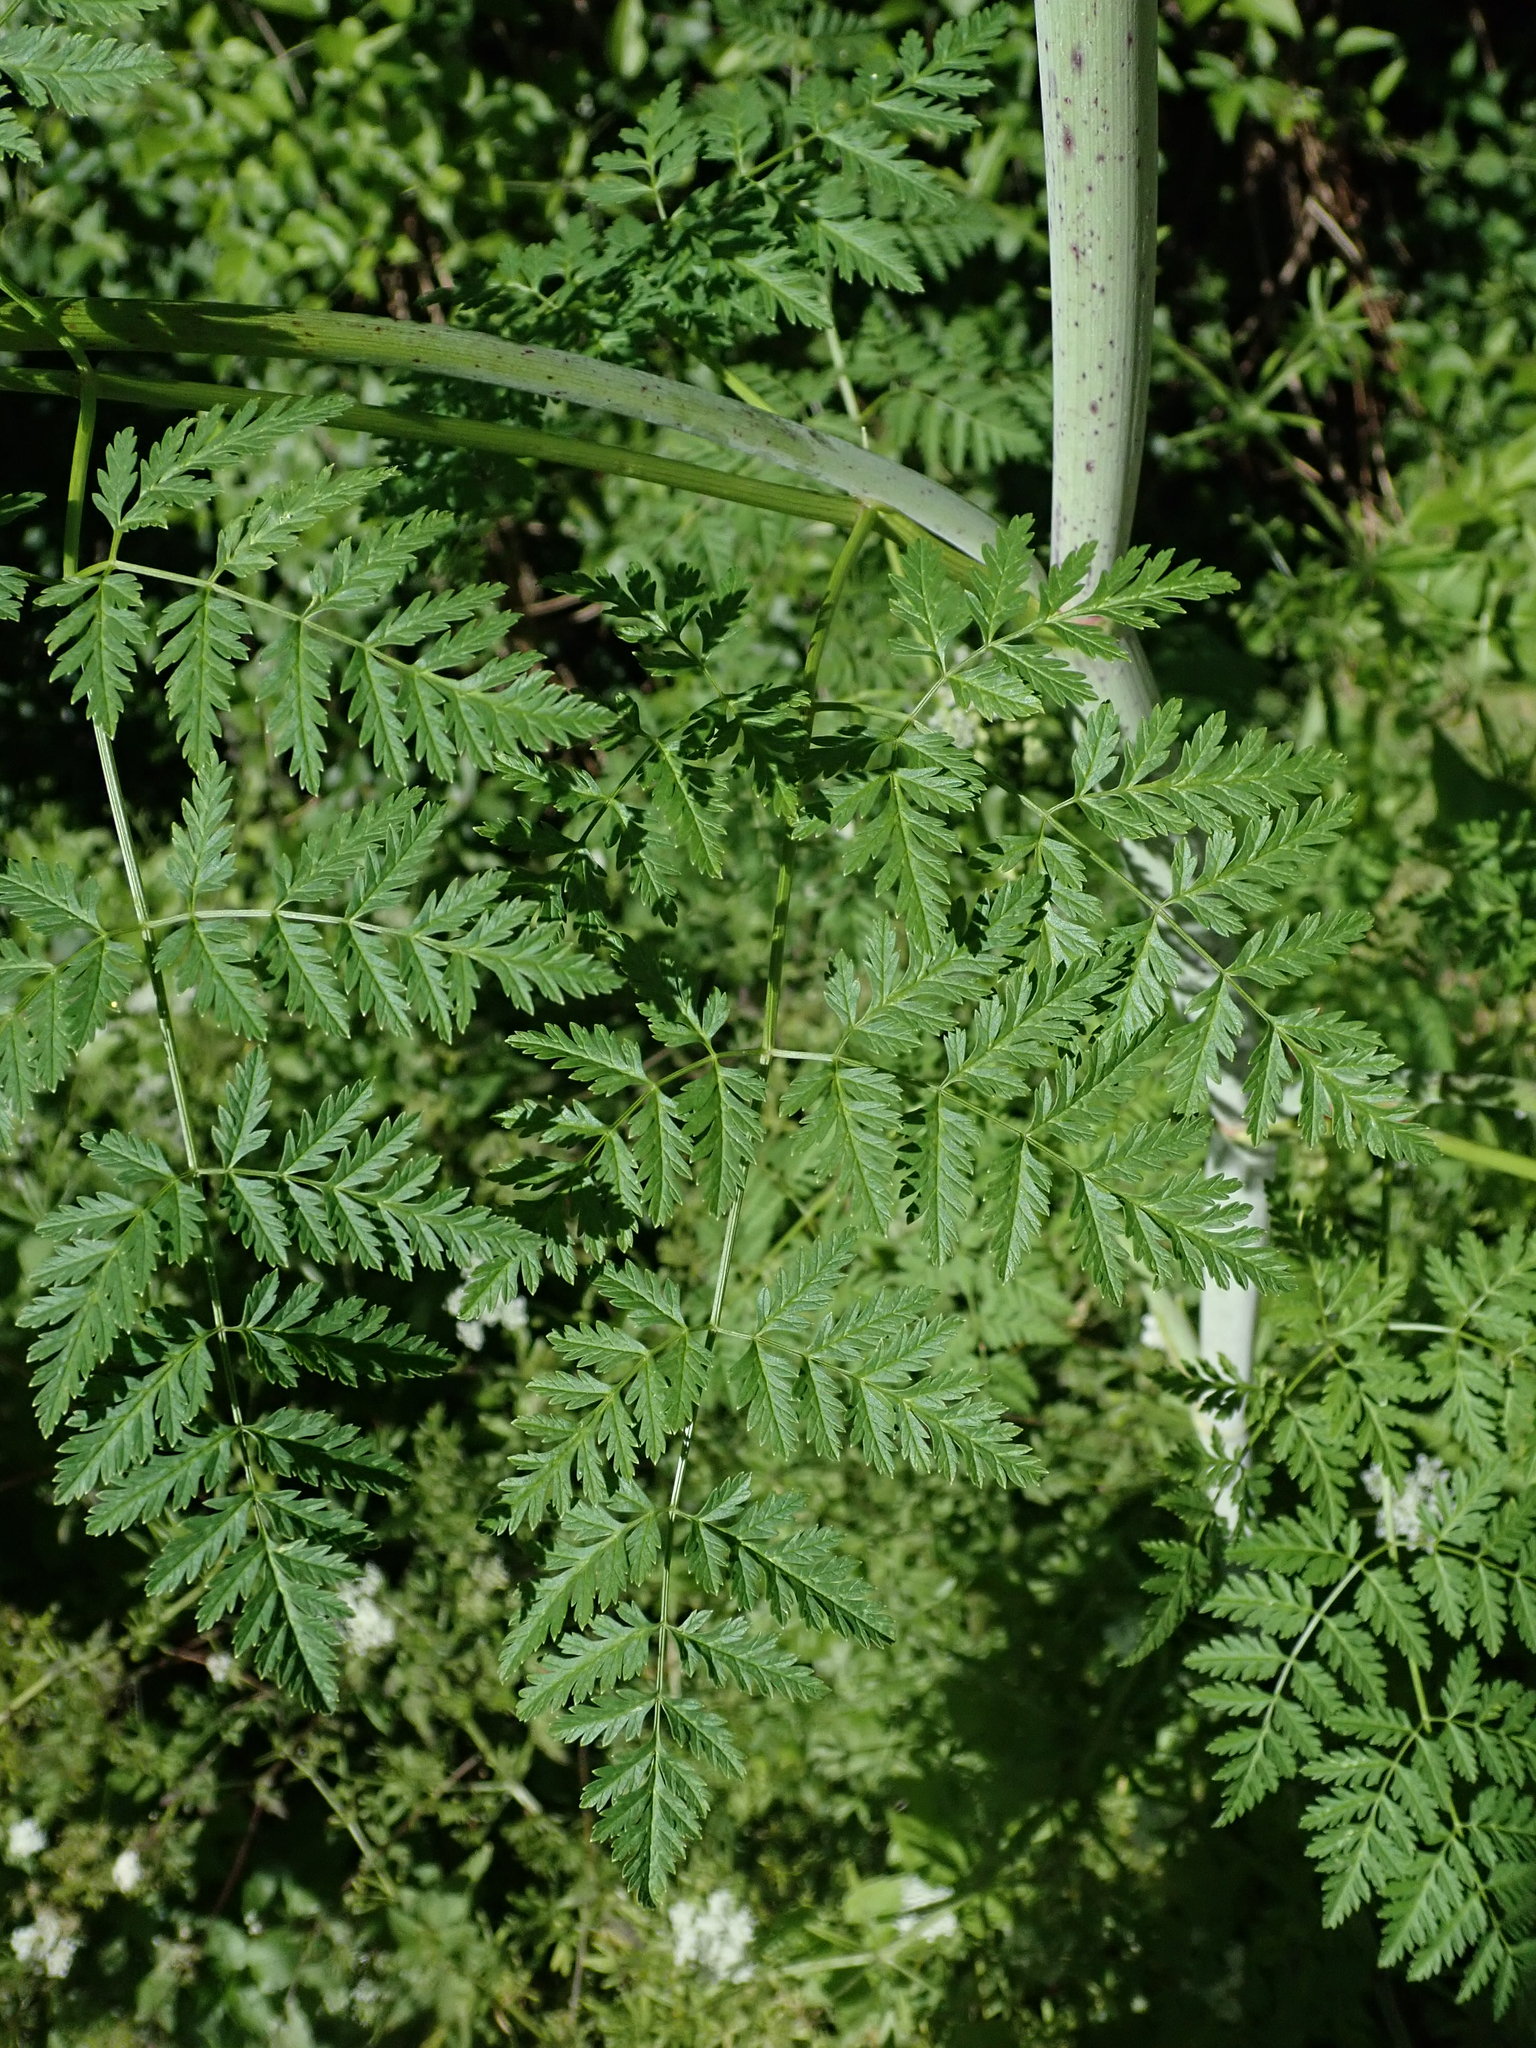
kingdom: Plantae
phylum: Tracheophyta
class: Magnoliopsida
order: Apiales
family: Apiaceae
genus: Conium
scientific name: Conium maculatum
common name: Hemlock
